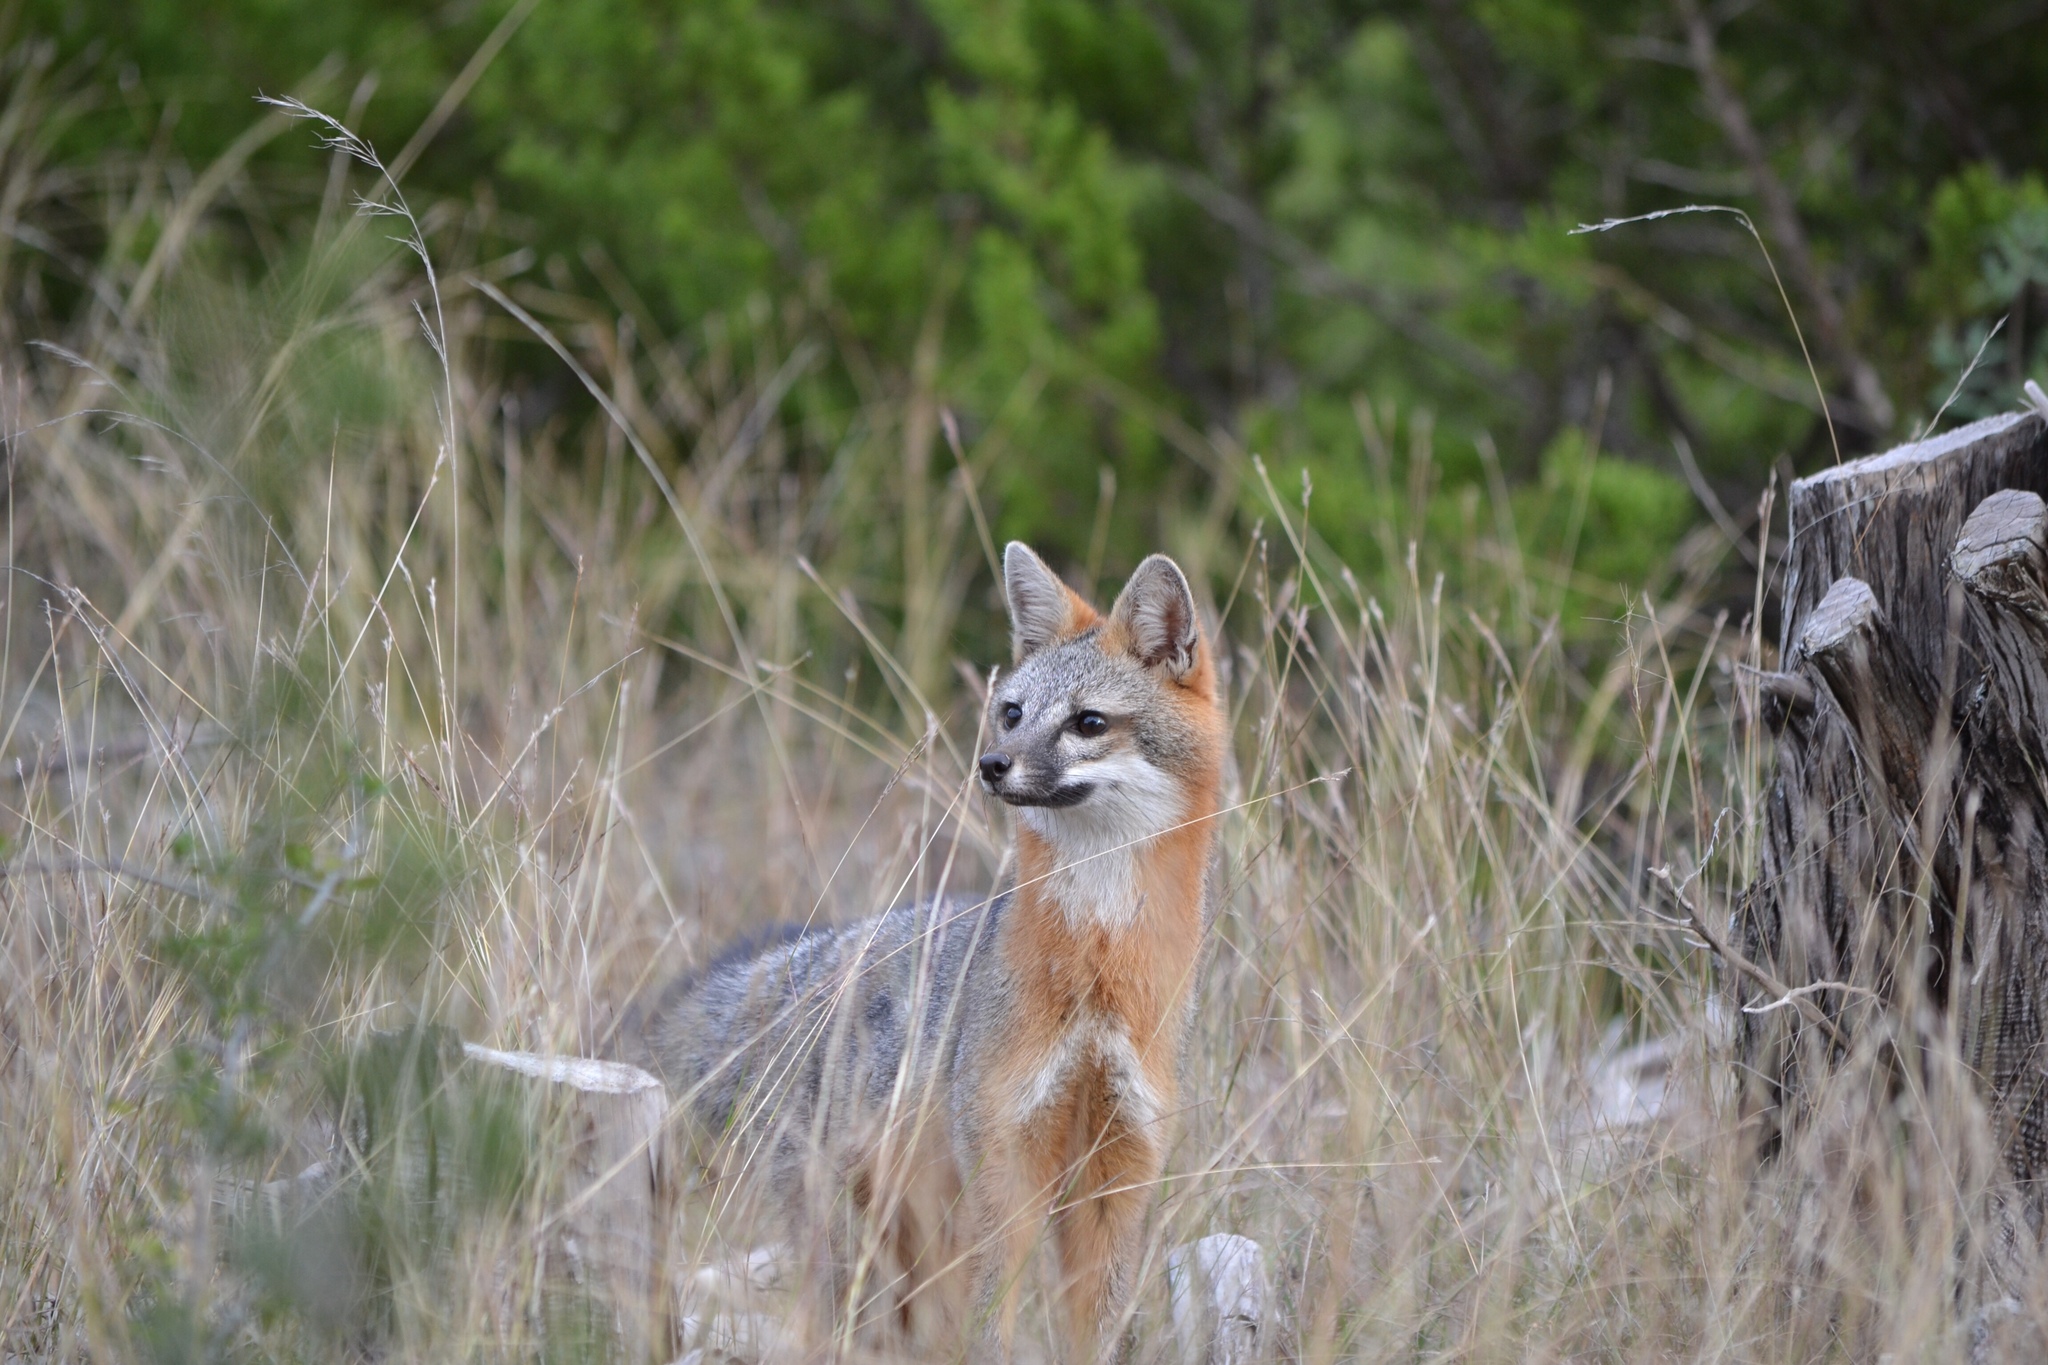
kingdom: Animalia
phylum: Chordata
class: Mammalia
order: Carnivora
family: Canidae
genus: Urocyon
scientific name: Urocyon cinereoargenteus
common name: Gray fox
